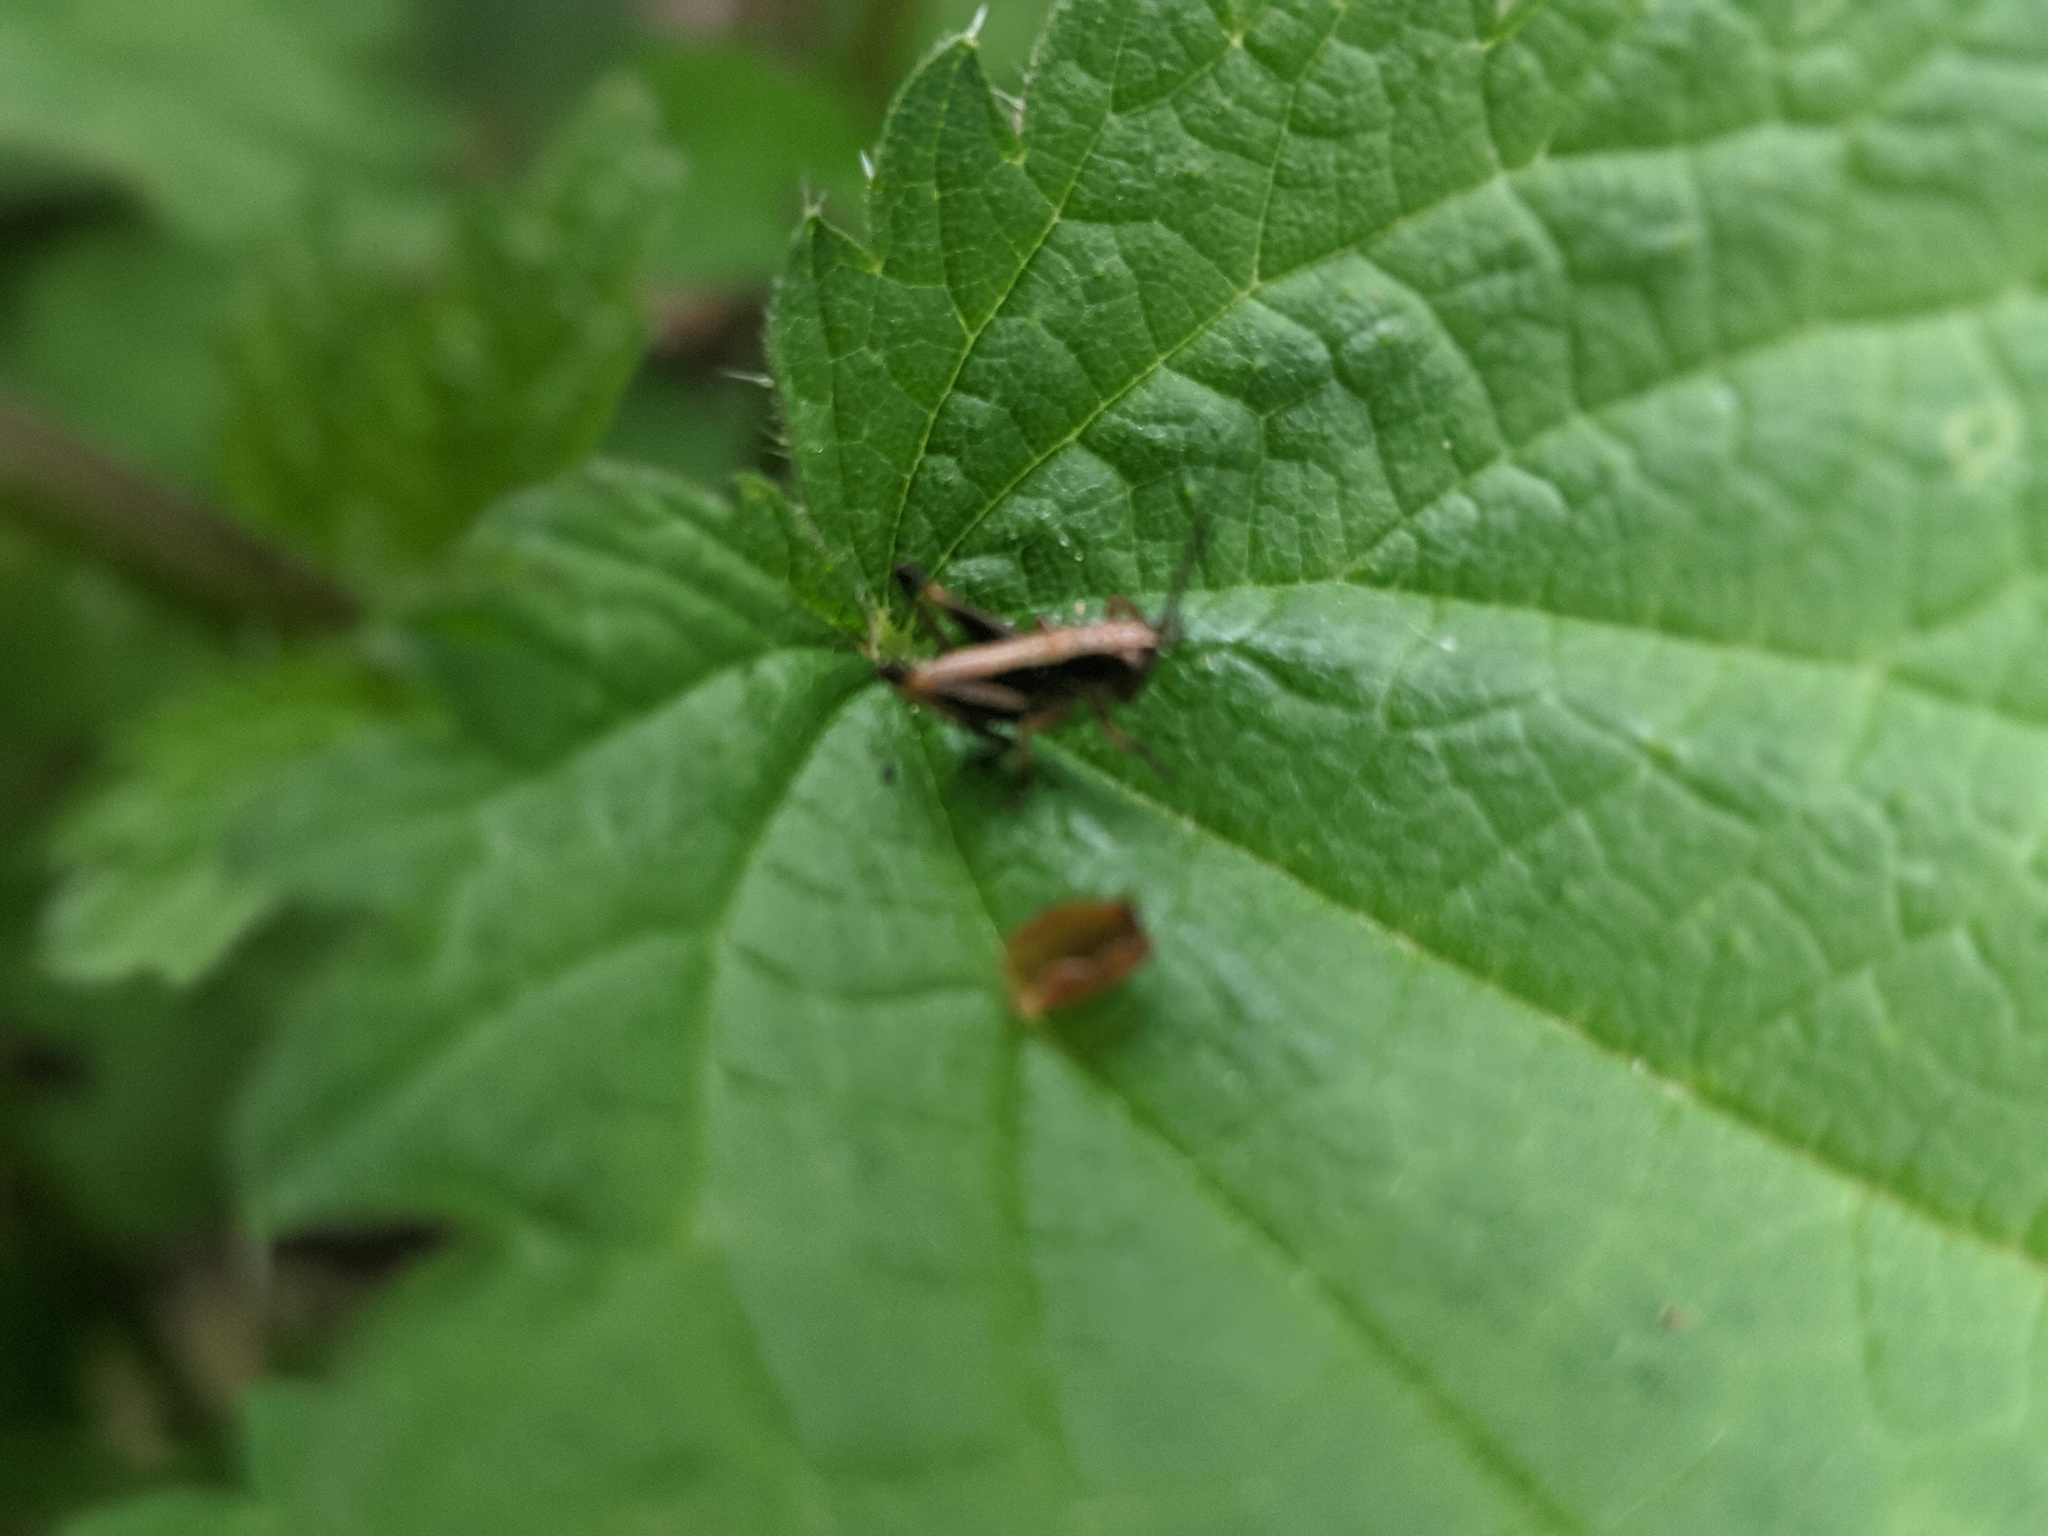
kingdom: Animalia
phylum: Arthropoda
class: Insecta
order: Orthoptera
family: Tettigoniidae
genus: Pholidoptera
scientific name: Pholidoptera griseoaptera
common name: Dark bush-cricket
